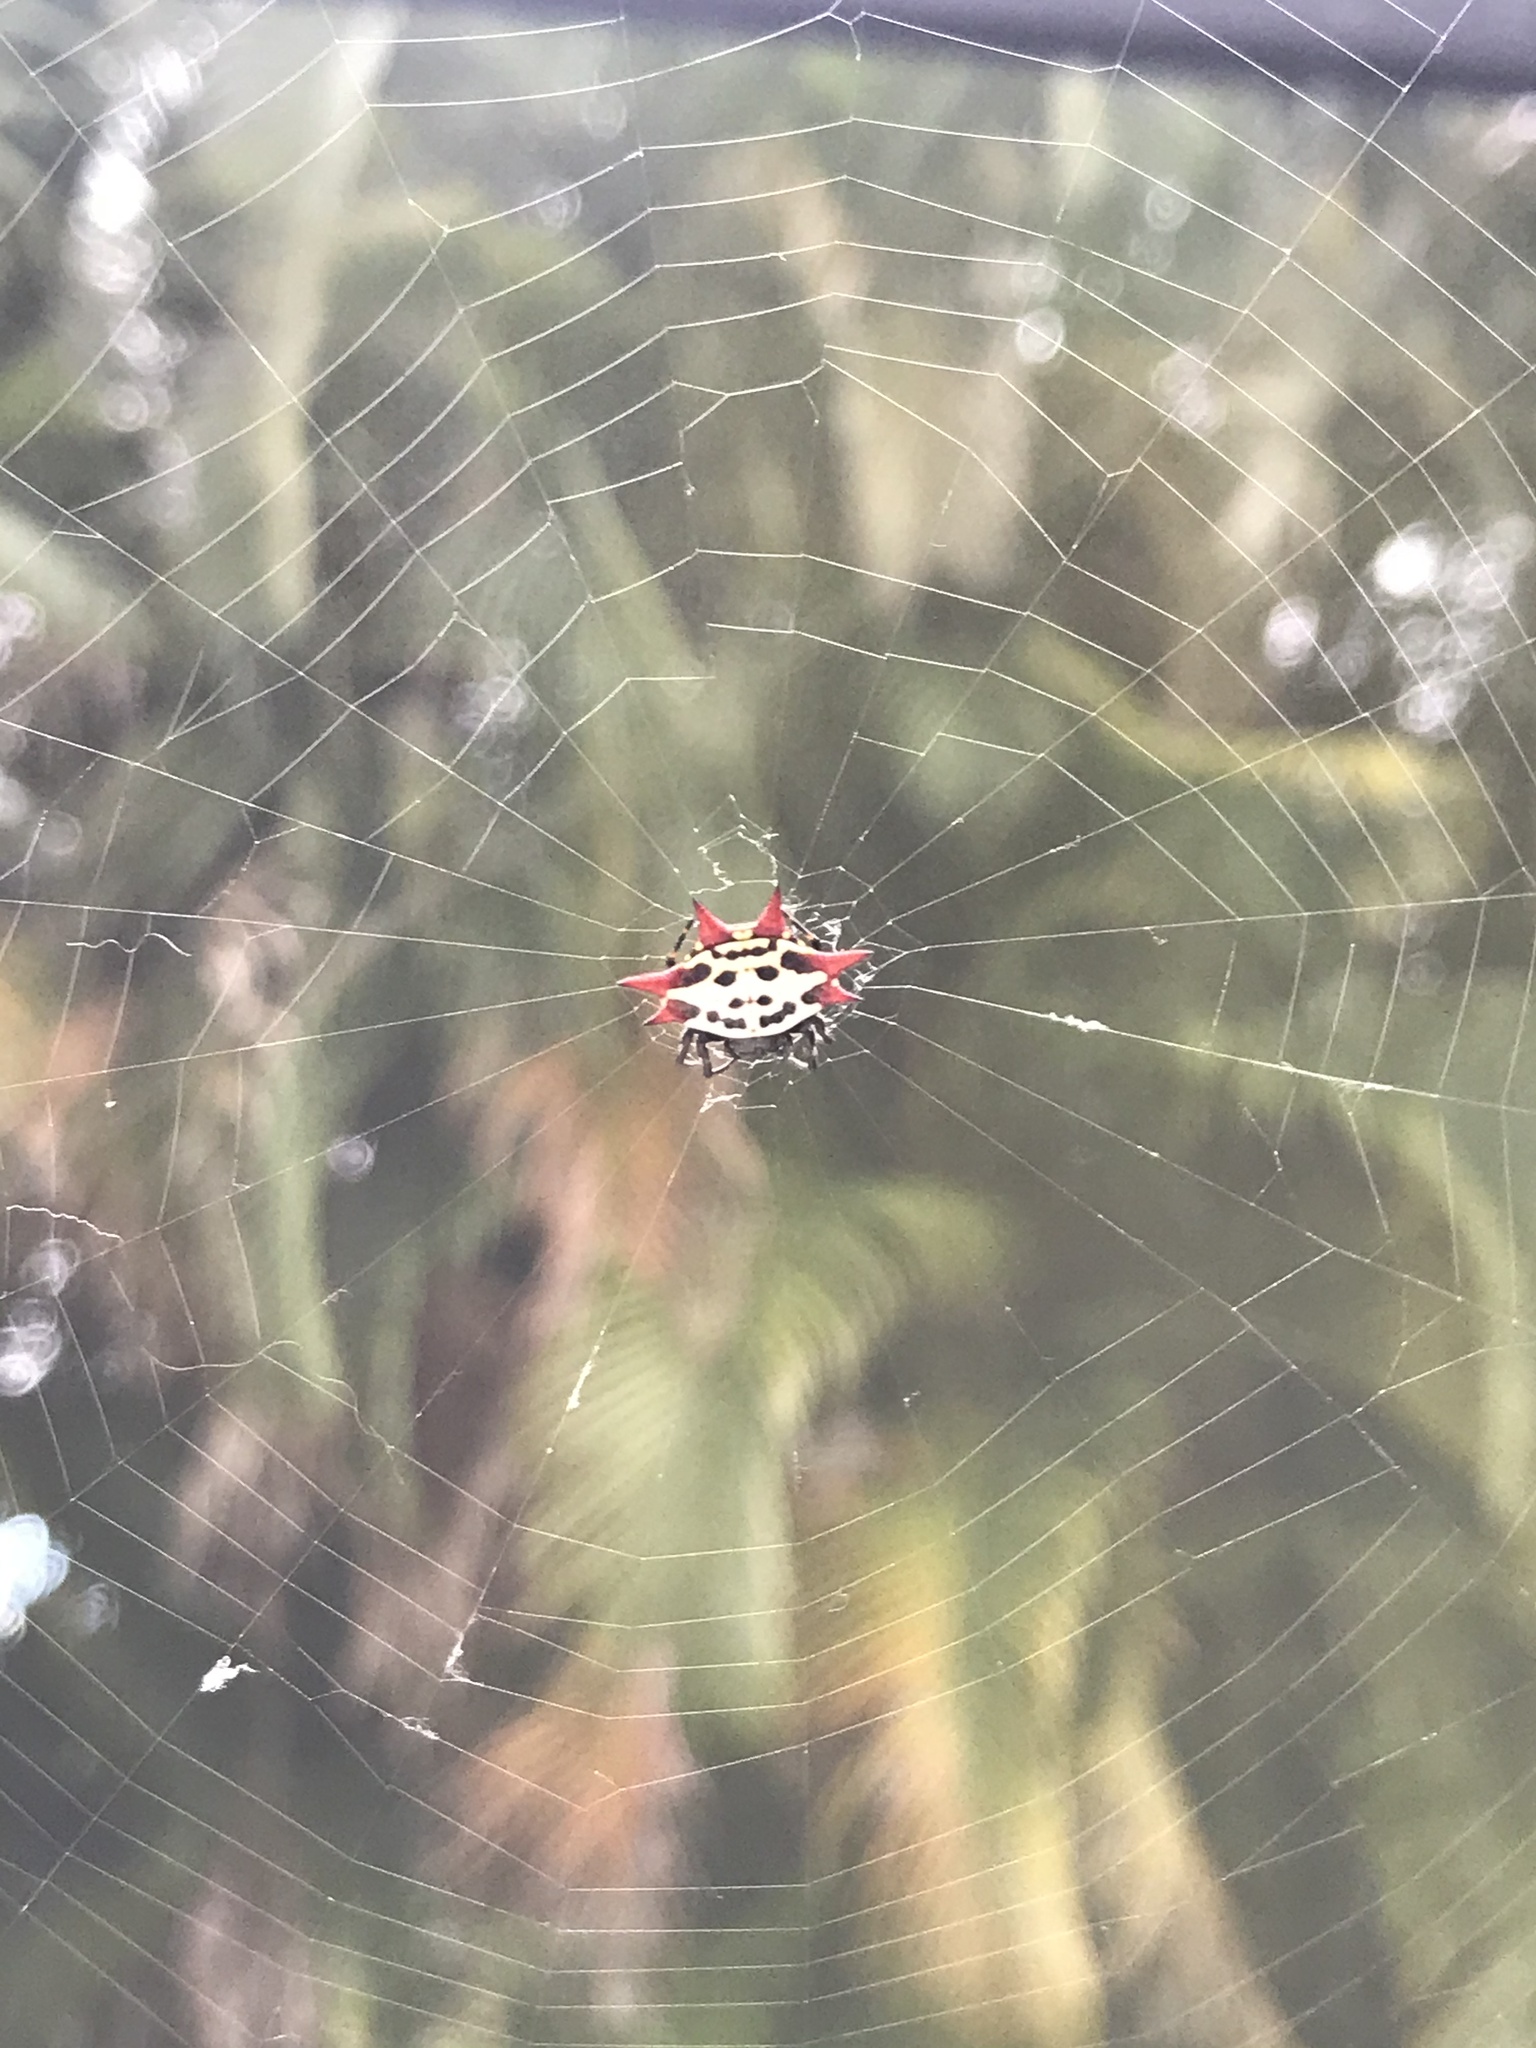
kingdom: Animalia
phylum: Arthropoda
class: Arachnida
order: Araneae
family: Araneidae
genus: Gasteracantha
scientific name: Gasteracantha cancriformis
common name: Orb weavers
